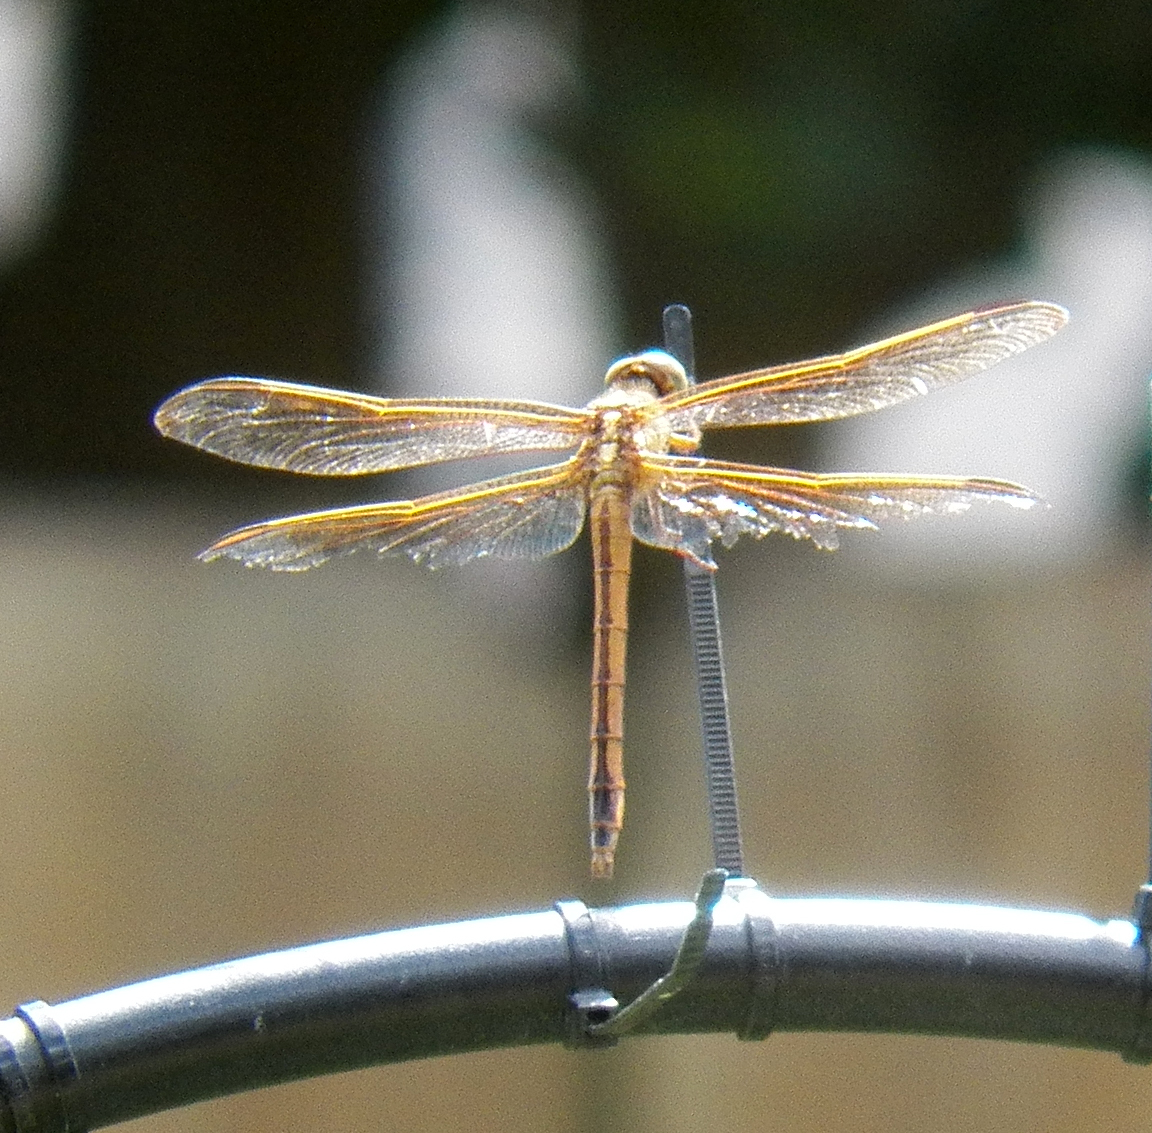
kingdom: Animalia
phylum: Arthropoda
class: Insecta
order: Odonata
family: Libellulidae
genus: Libellula
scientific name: Libellula needhami
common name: Needham's skimmer
